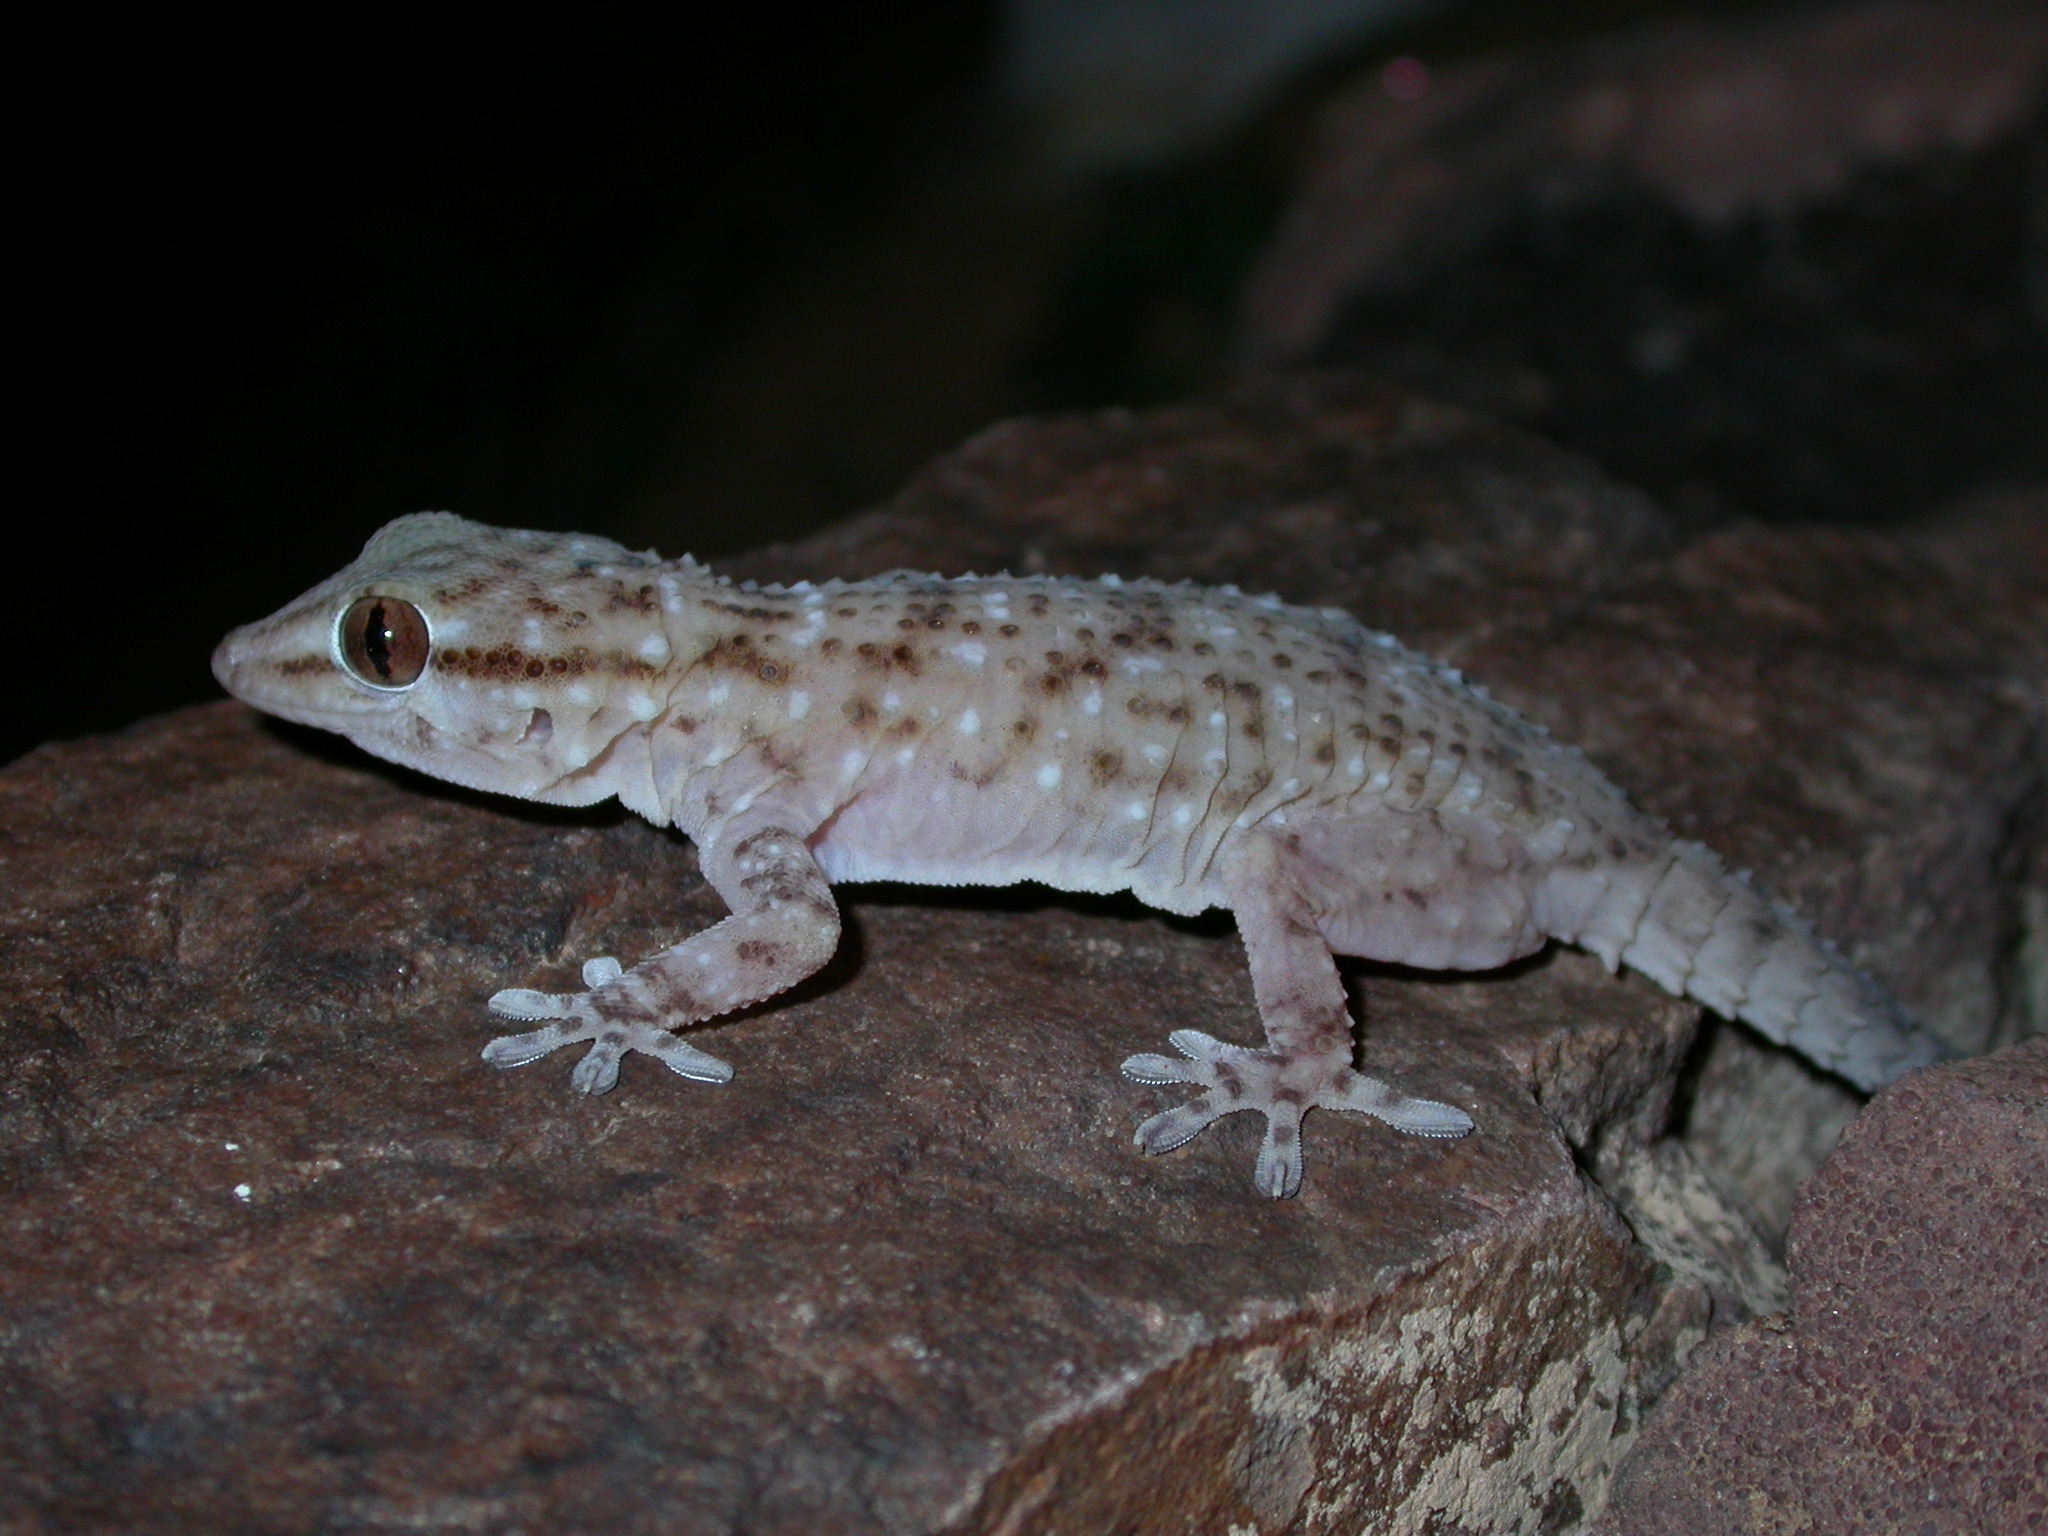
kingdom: Animalia
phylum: Chordata
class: Squamata
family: Phyllodactylidae
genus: Tarentola
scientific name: Tarentola parvicarinata
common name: White-spotted wall gecko
